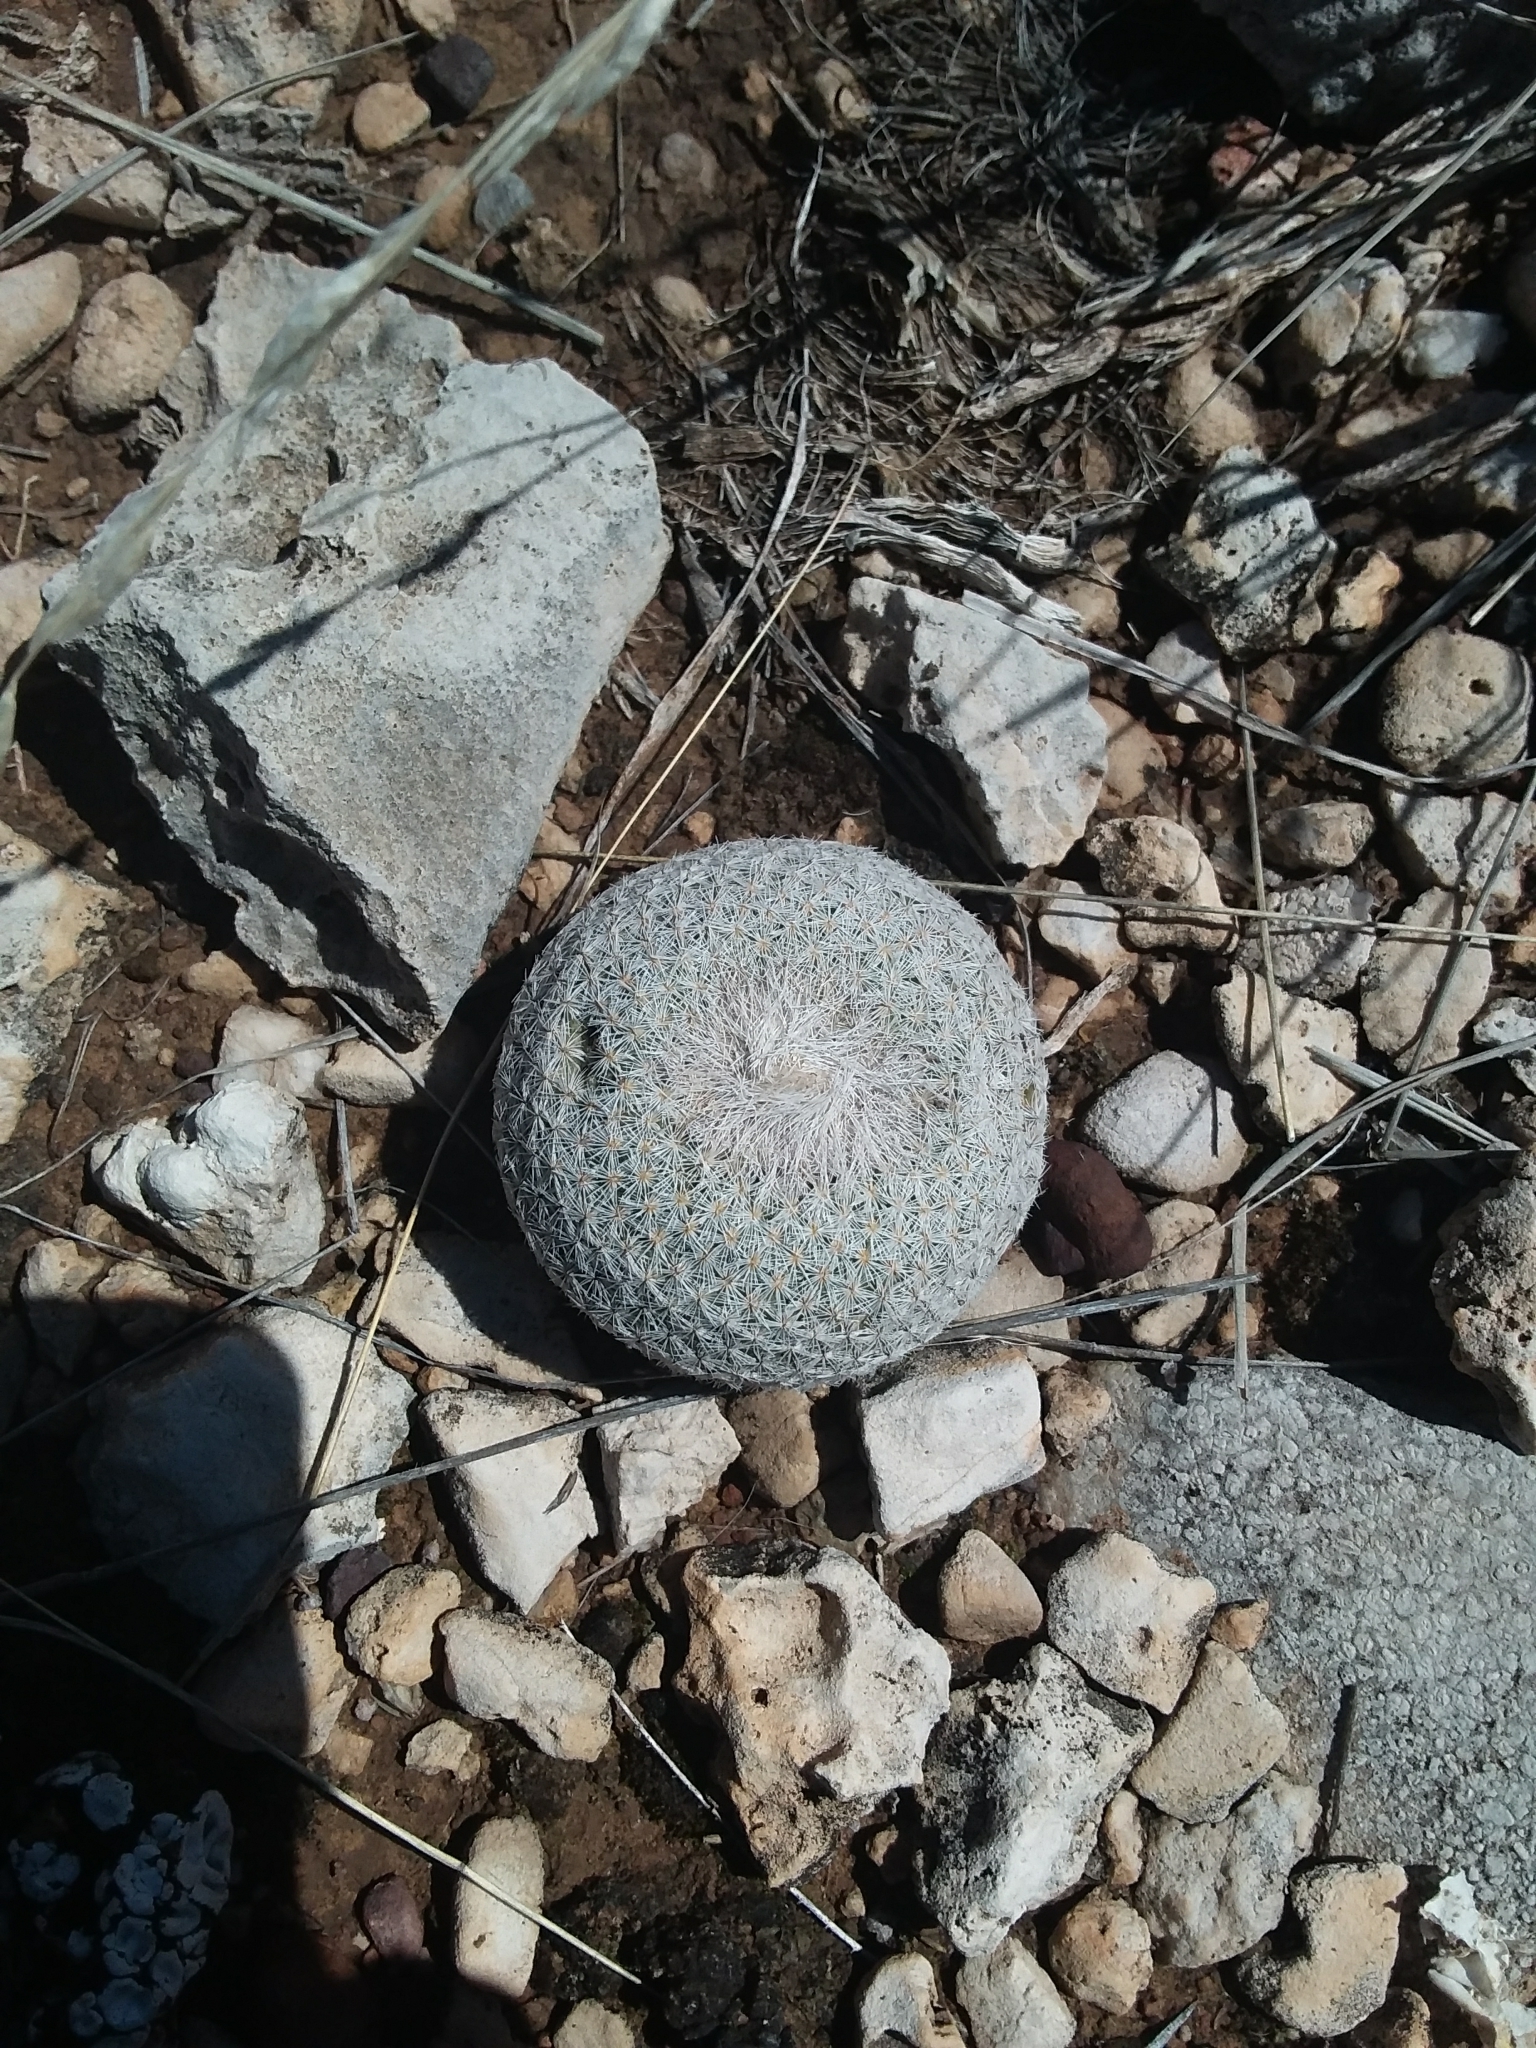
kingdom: Plantae
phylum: Tracheophyta
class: Magnoliopsida
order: Caryophyllales
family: Cactaceae
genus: Epithelantha
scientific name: Epithelantha micromeris
